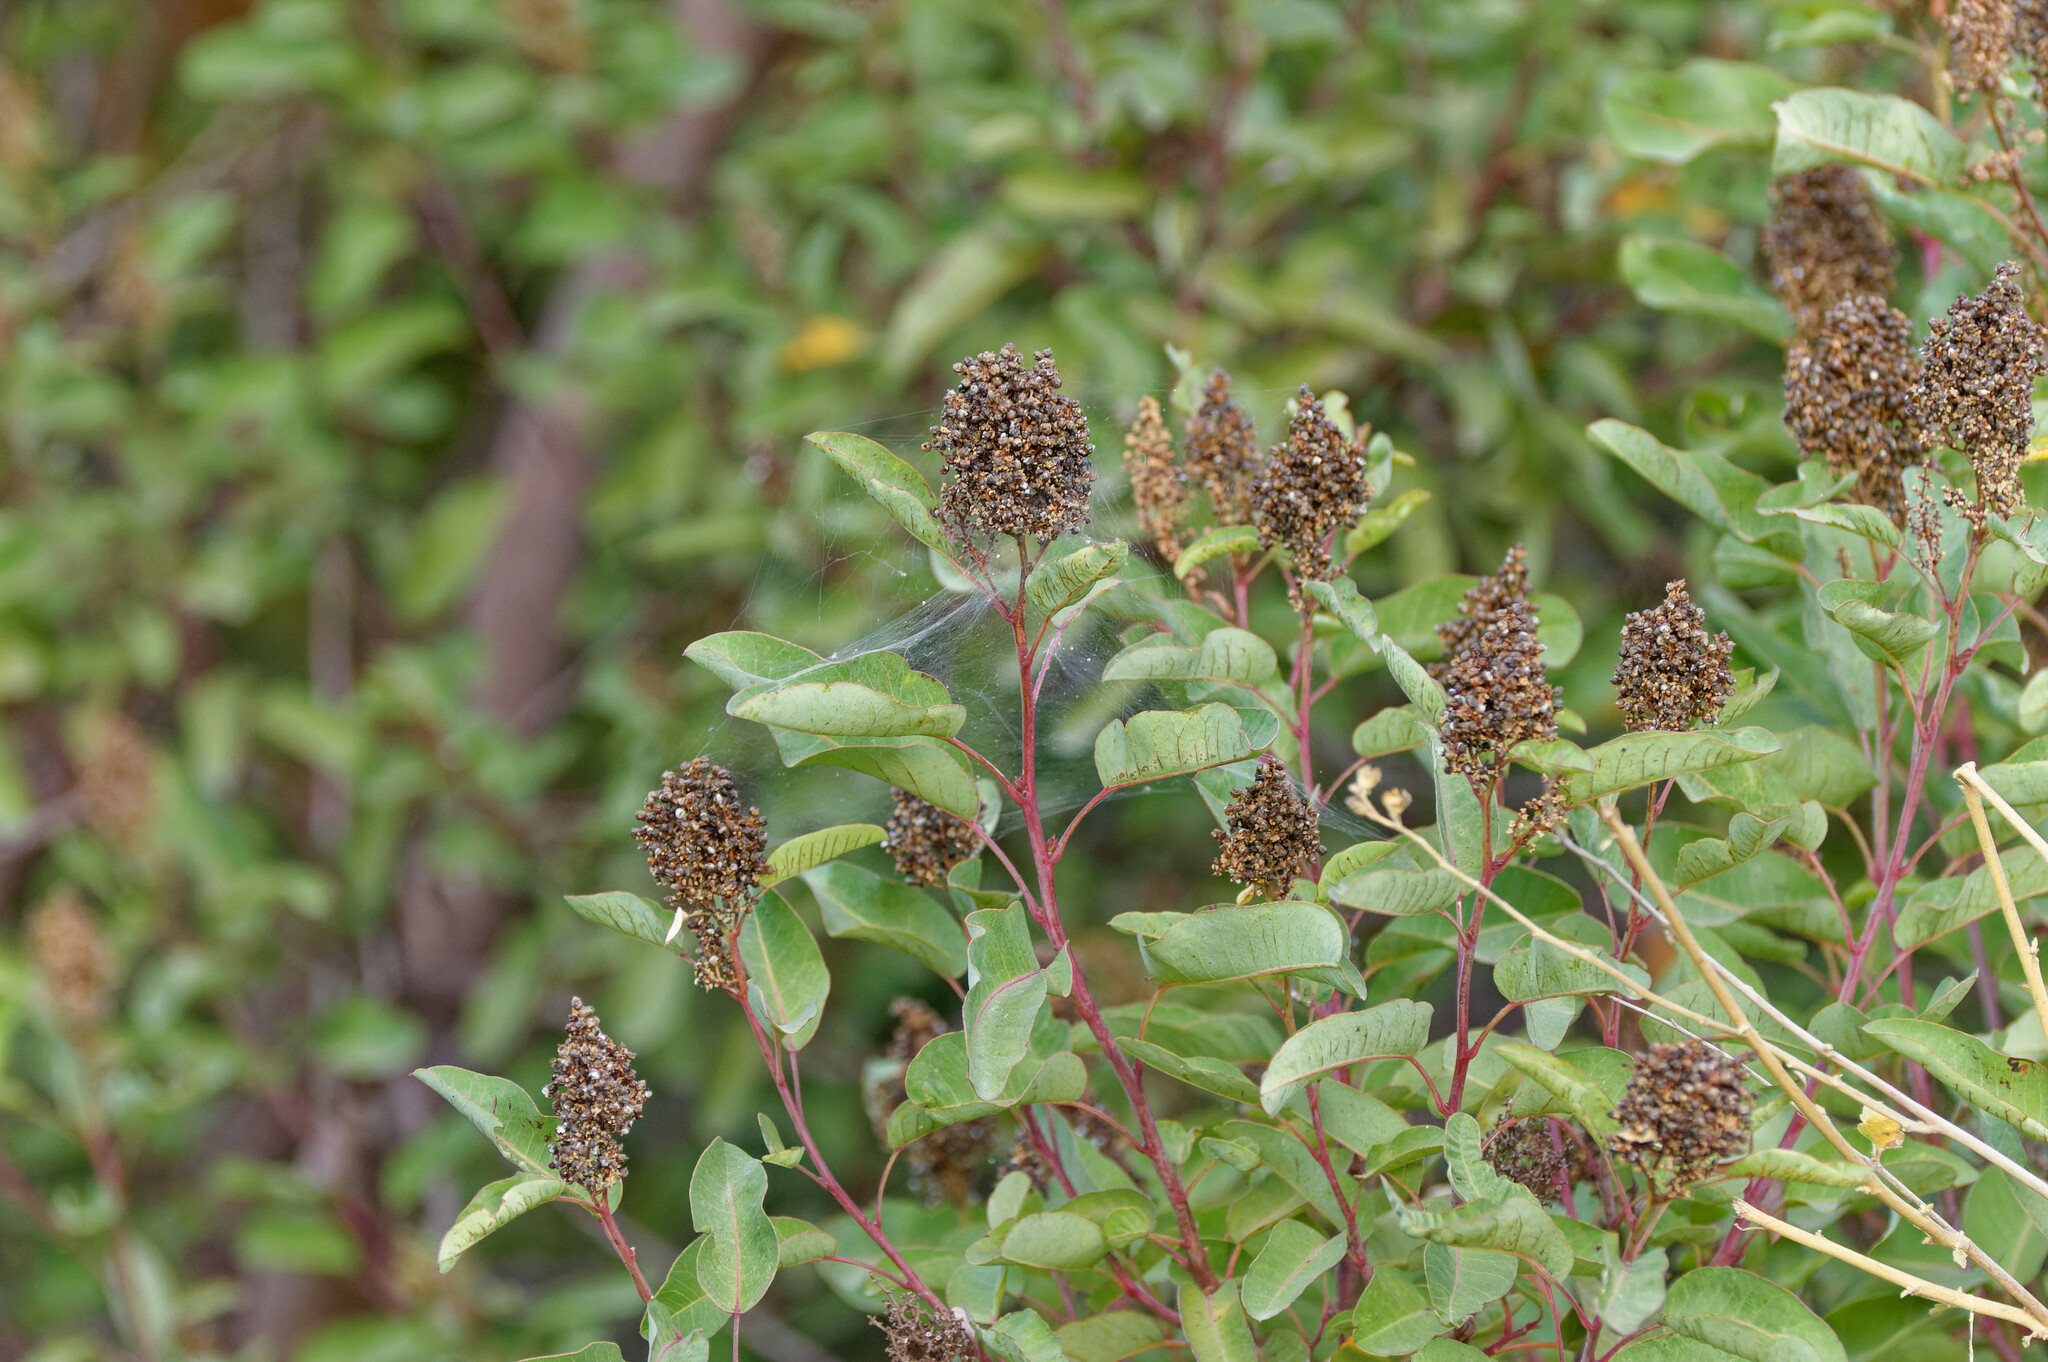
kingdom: Plantae
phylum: Tracheophyta
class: Magnoliopsida
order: Sapindales
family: Anacardiaceae
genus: Malosma
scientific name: Malosma laurina
